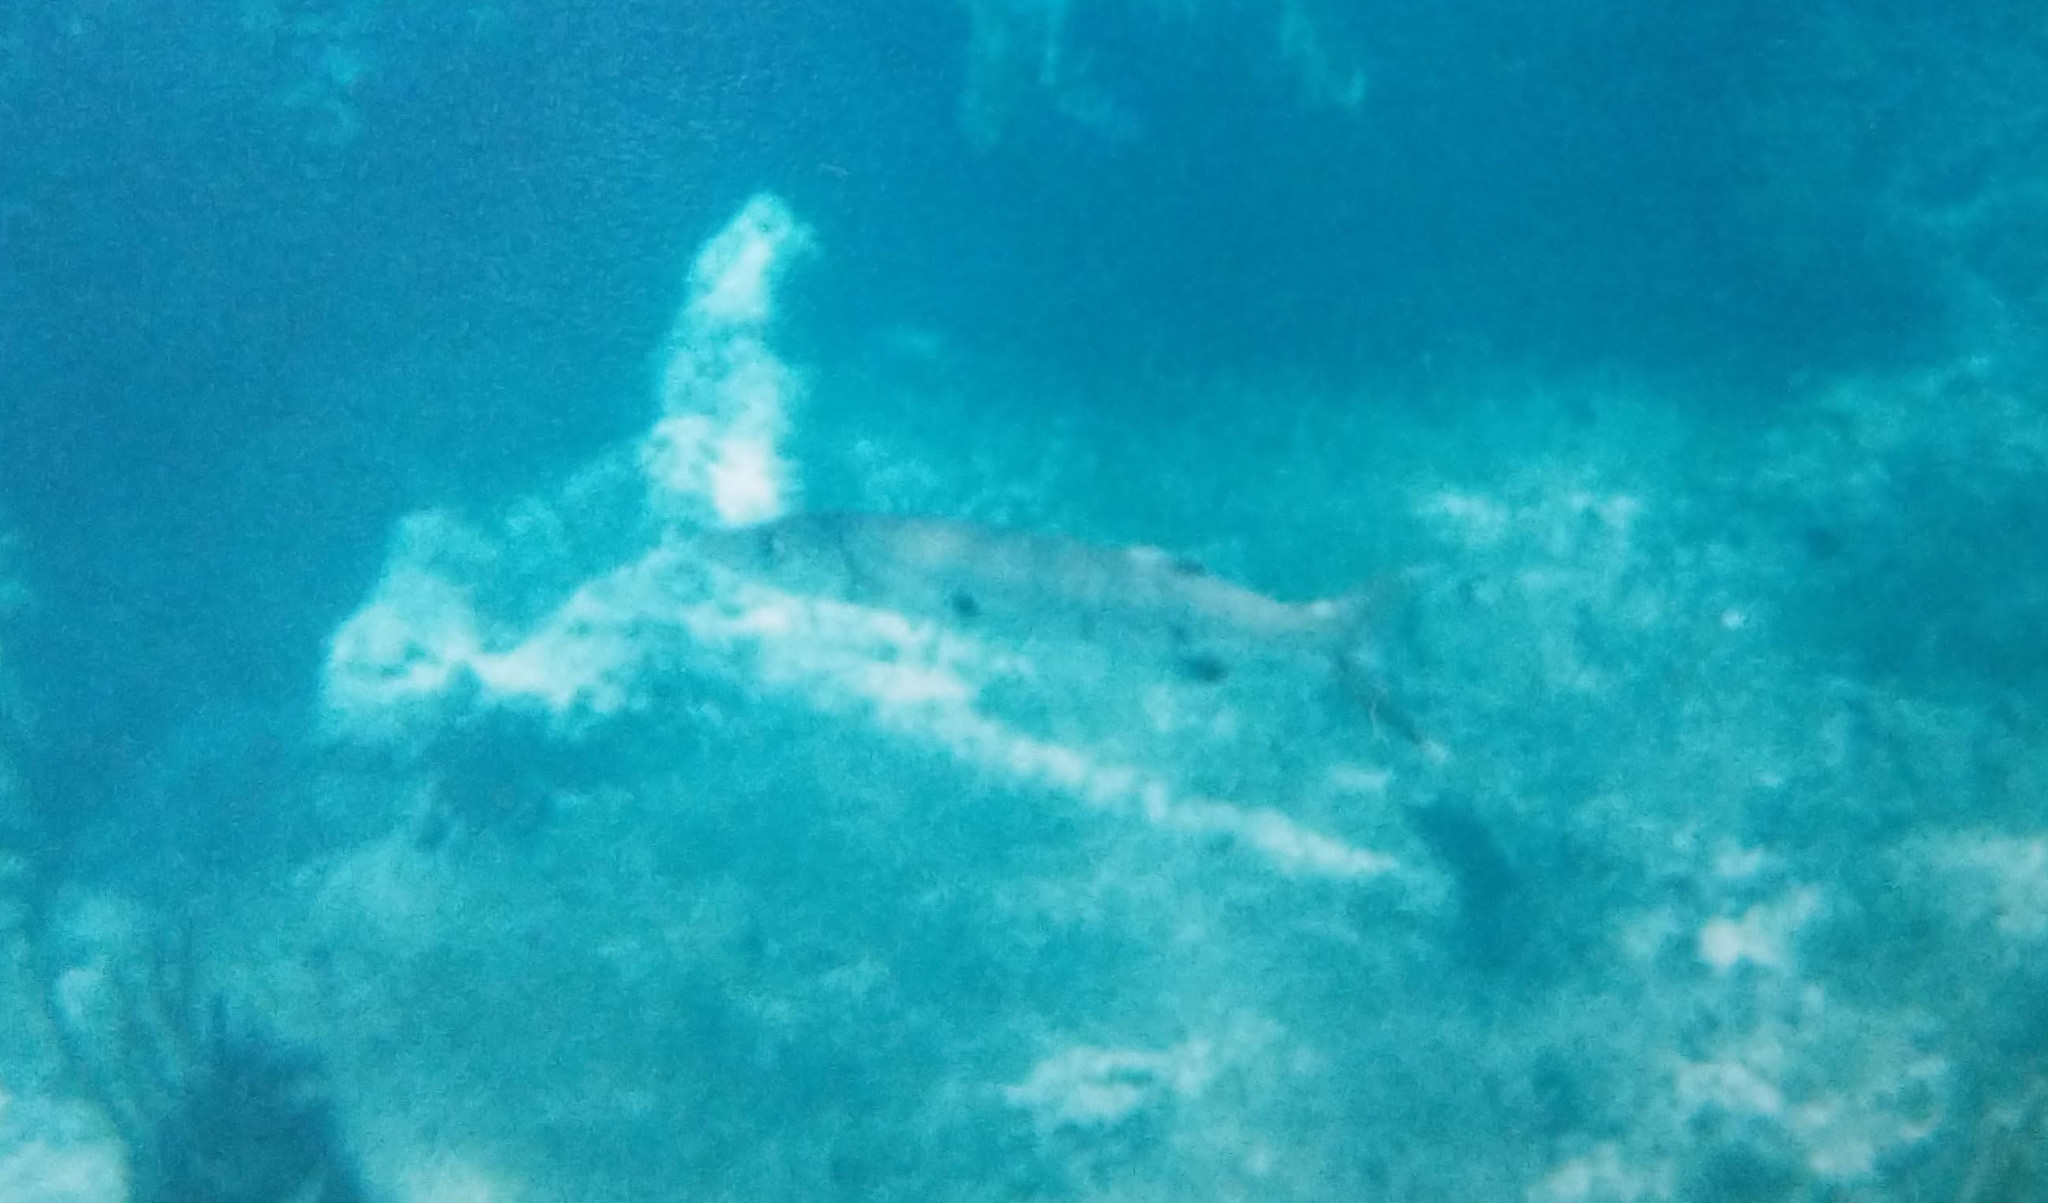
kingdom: Animalia
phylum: Chordata
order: Perciformes
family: Sphyraenidae
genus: Sphyraena
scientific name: Sphyraena barracuda
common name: Great barracuda
